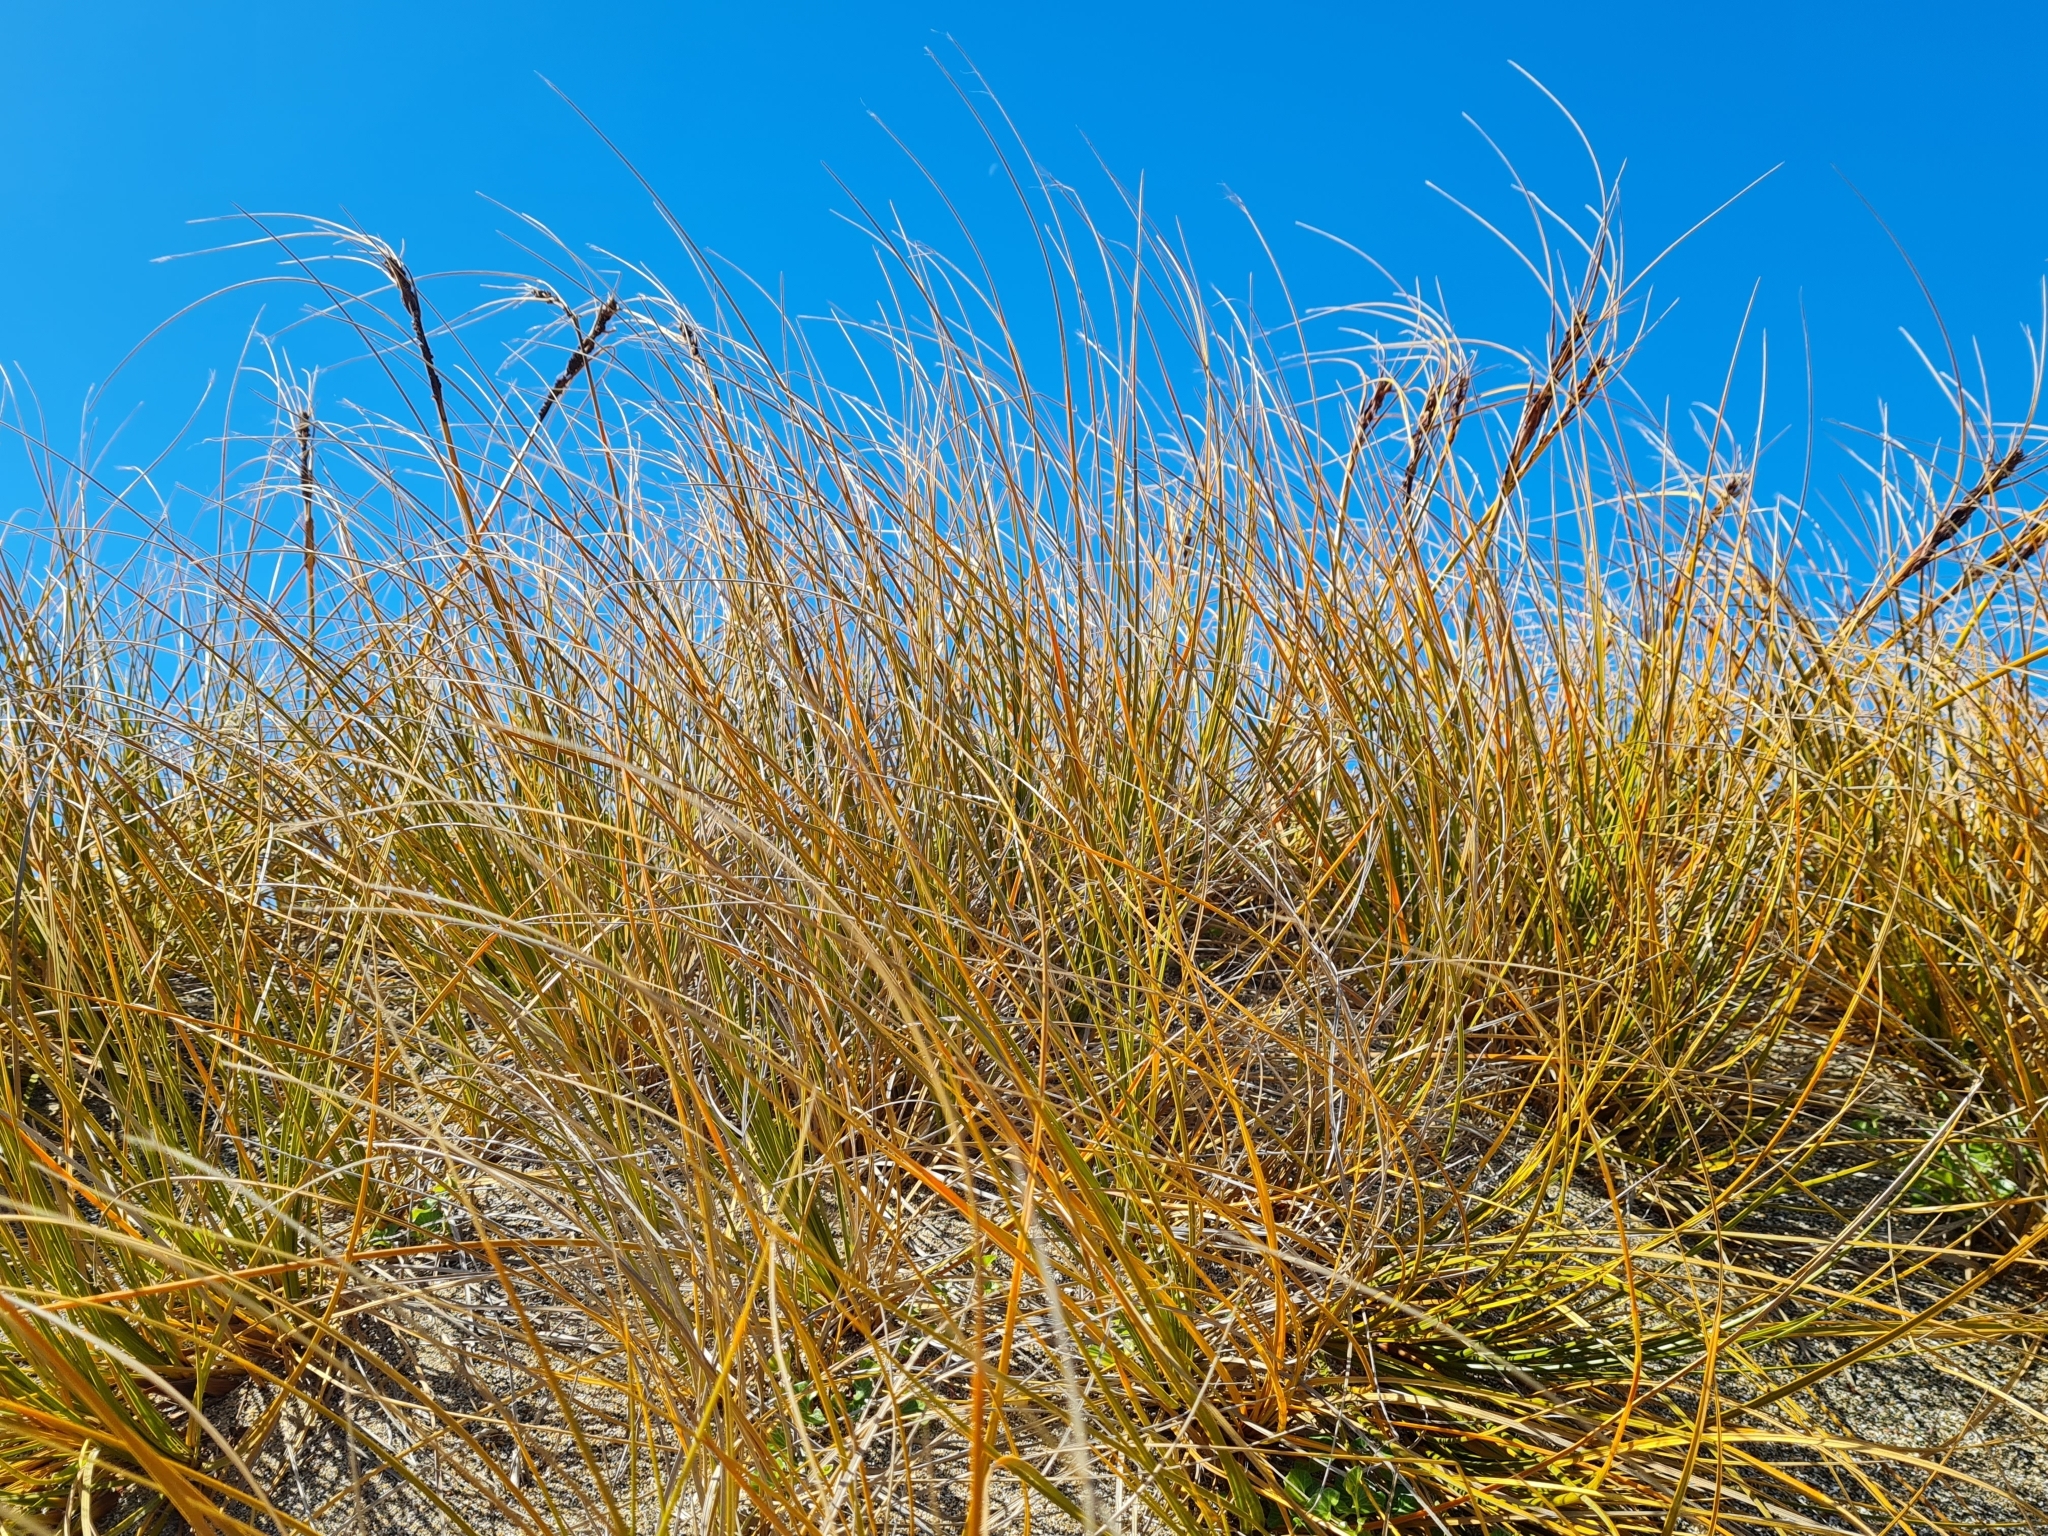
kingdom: Plantae
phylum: Tracheophyta
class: Liliopsida
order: Poales
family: Cyperaceae
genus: Ficinia
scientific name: Ficinia spiralis
